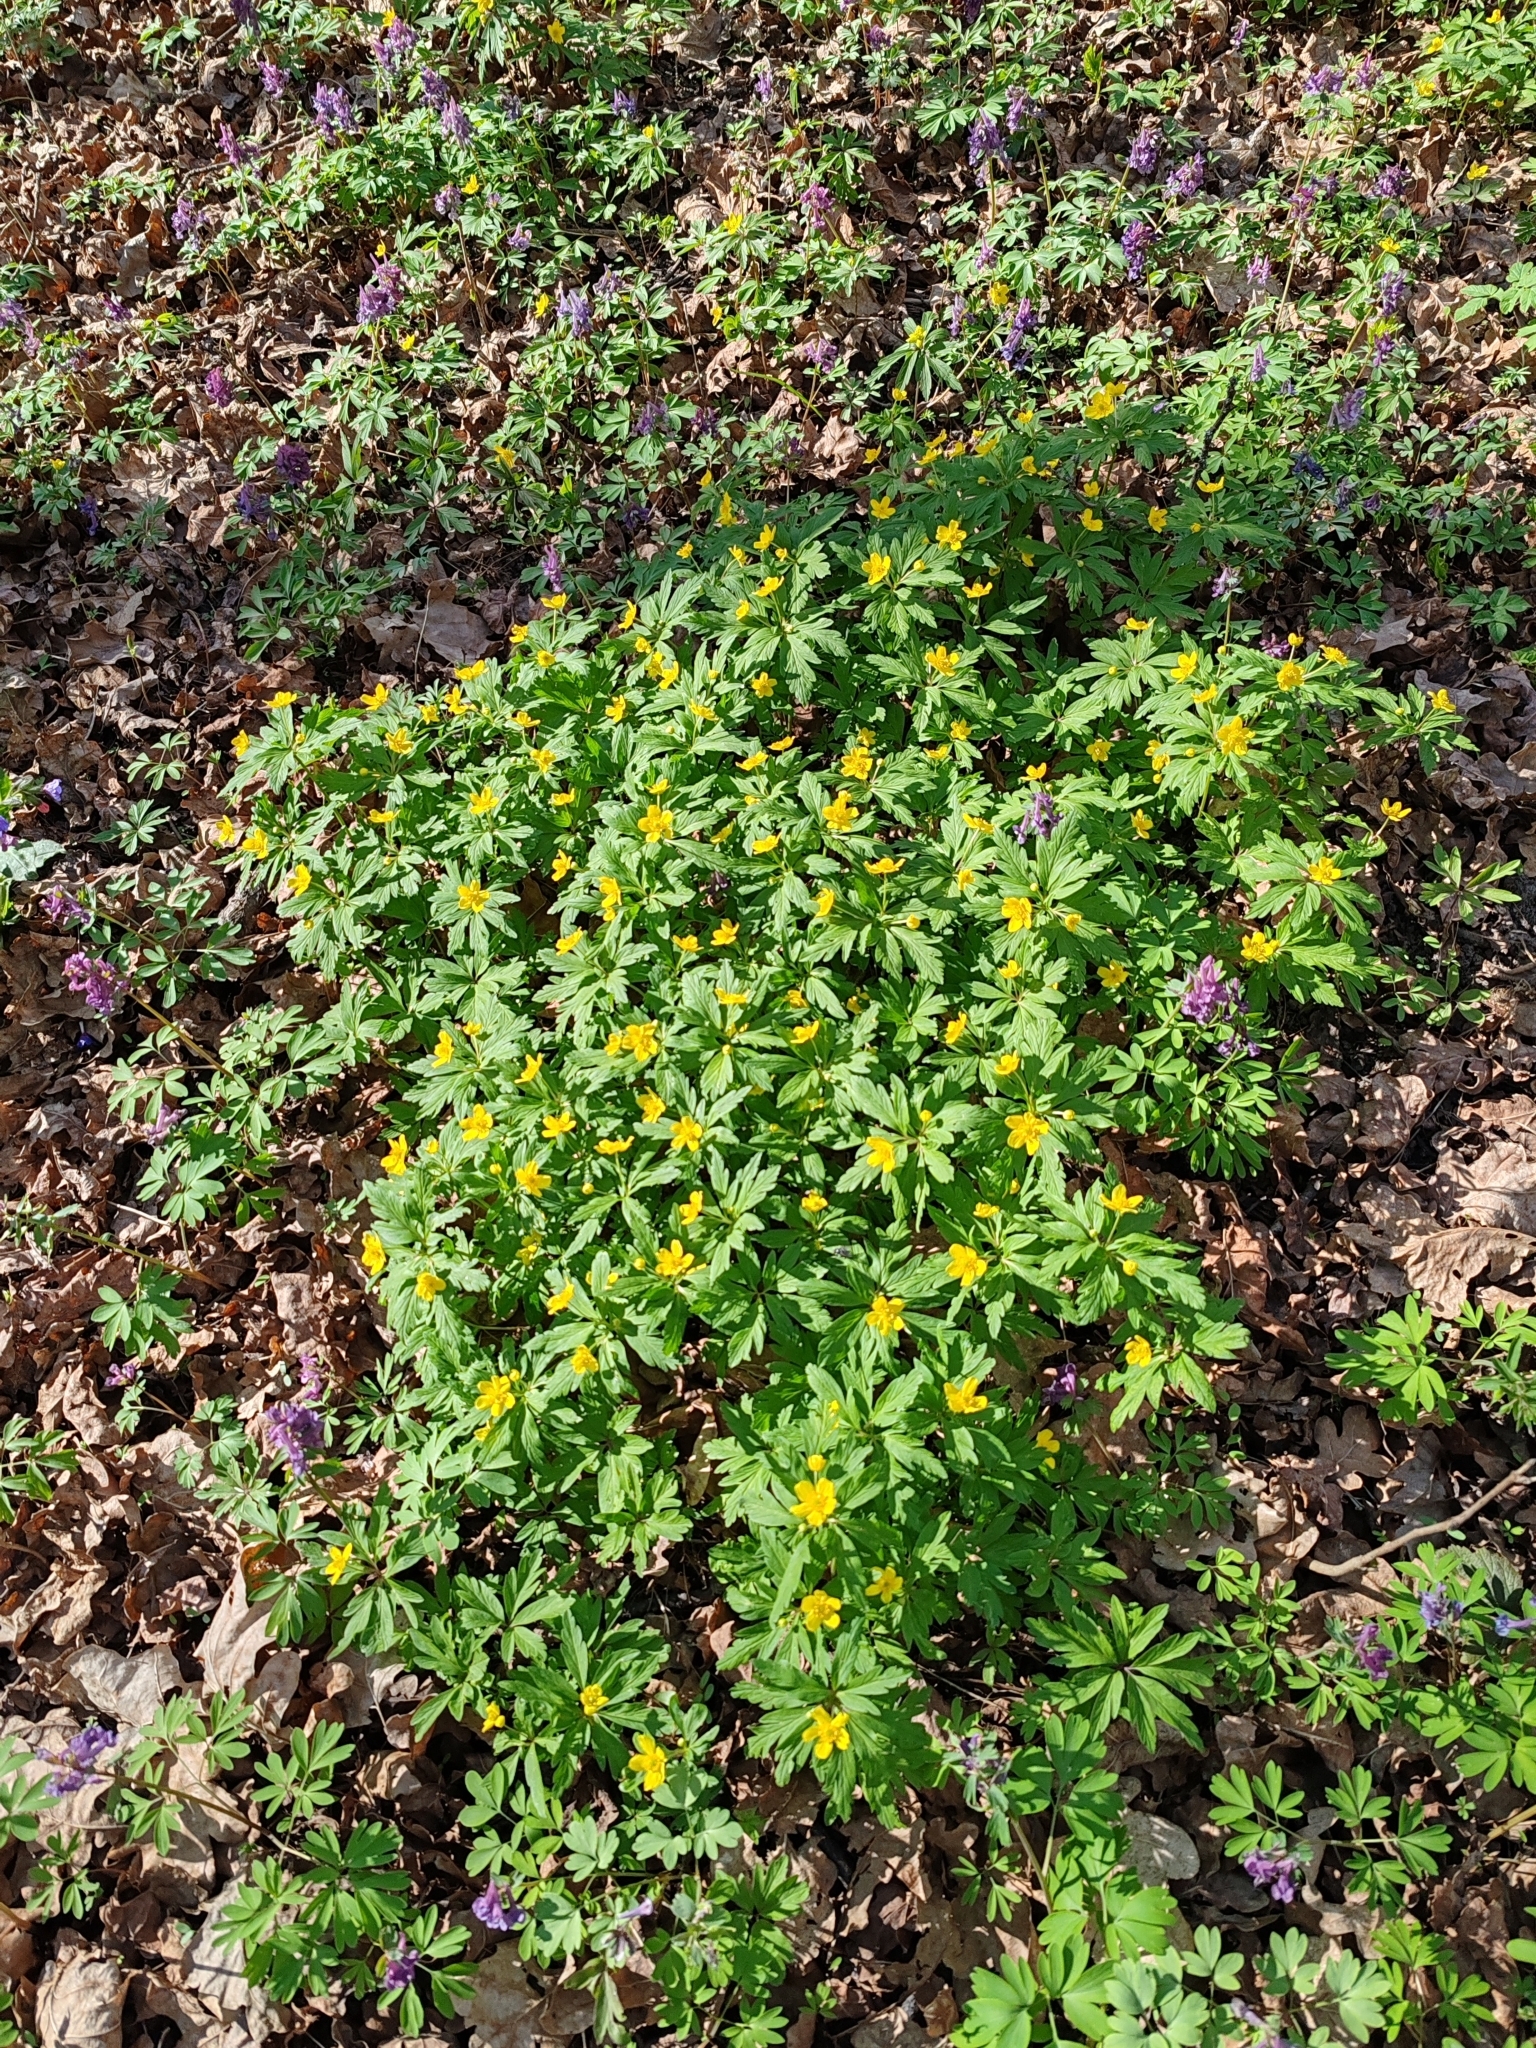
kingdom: Plantae
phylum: Tracheophyta
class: Magnoliopsida
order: Ranunculales
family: Ranunculaceae
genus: Anemone
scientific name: Anemone ranunculoides
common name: Yellow anemone
